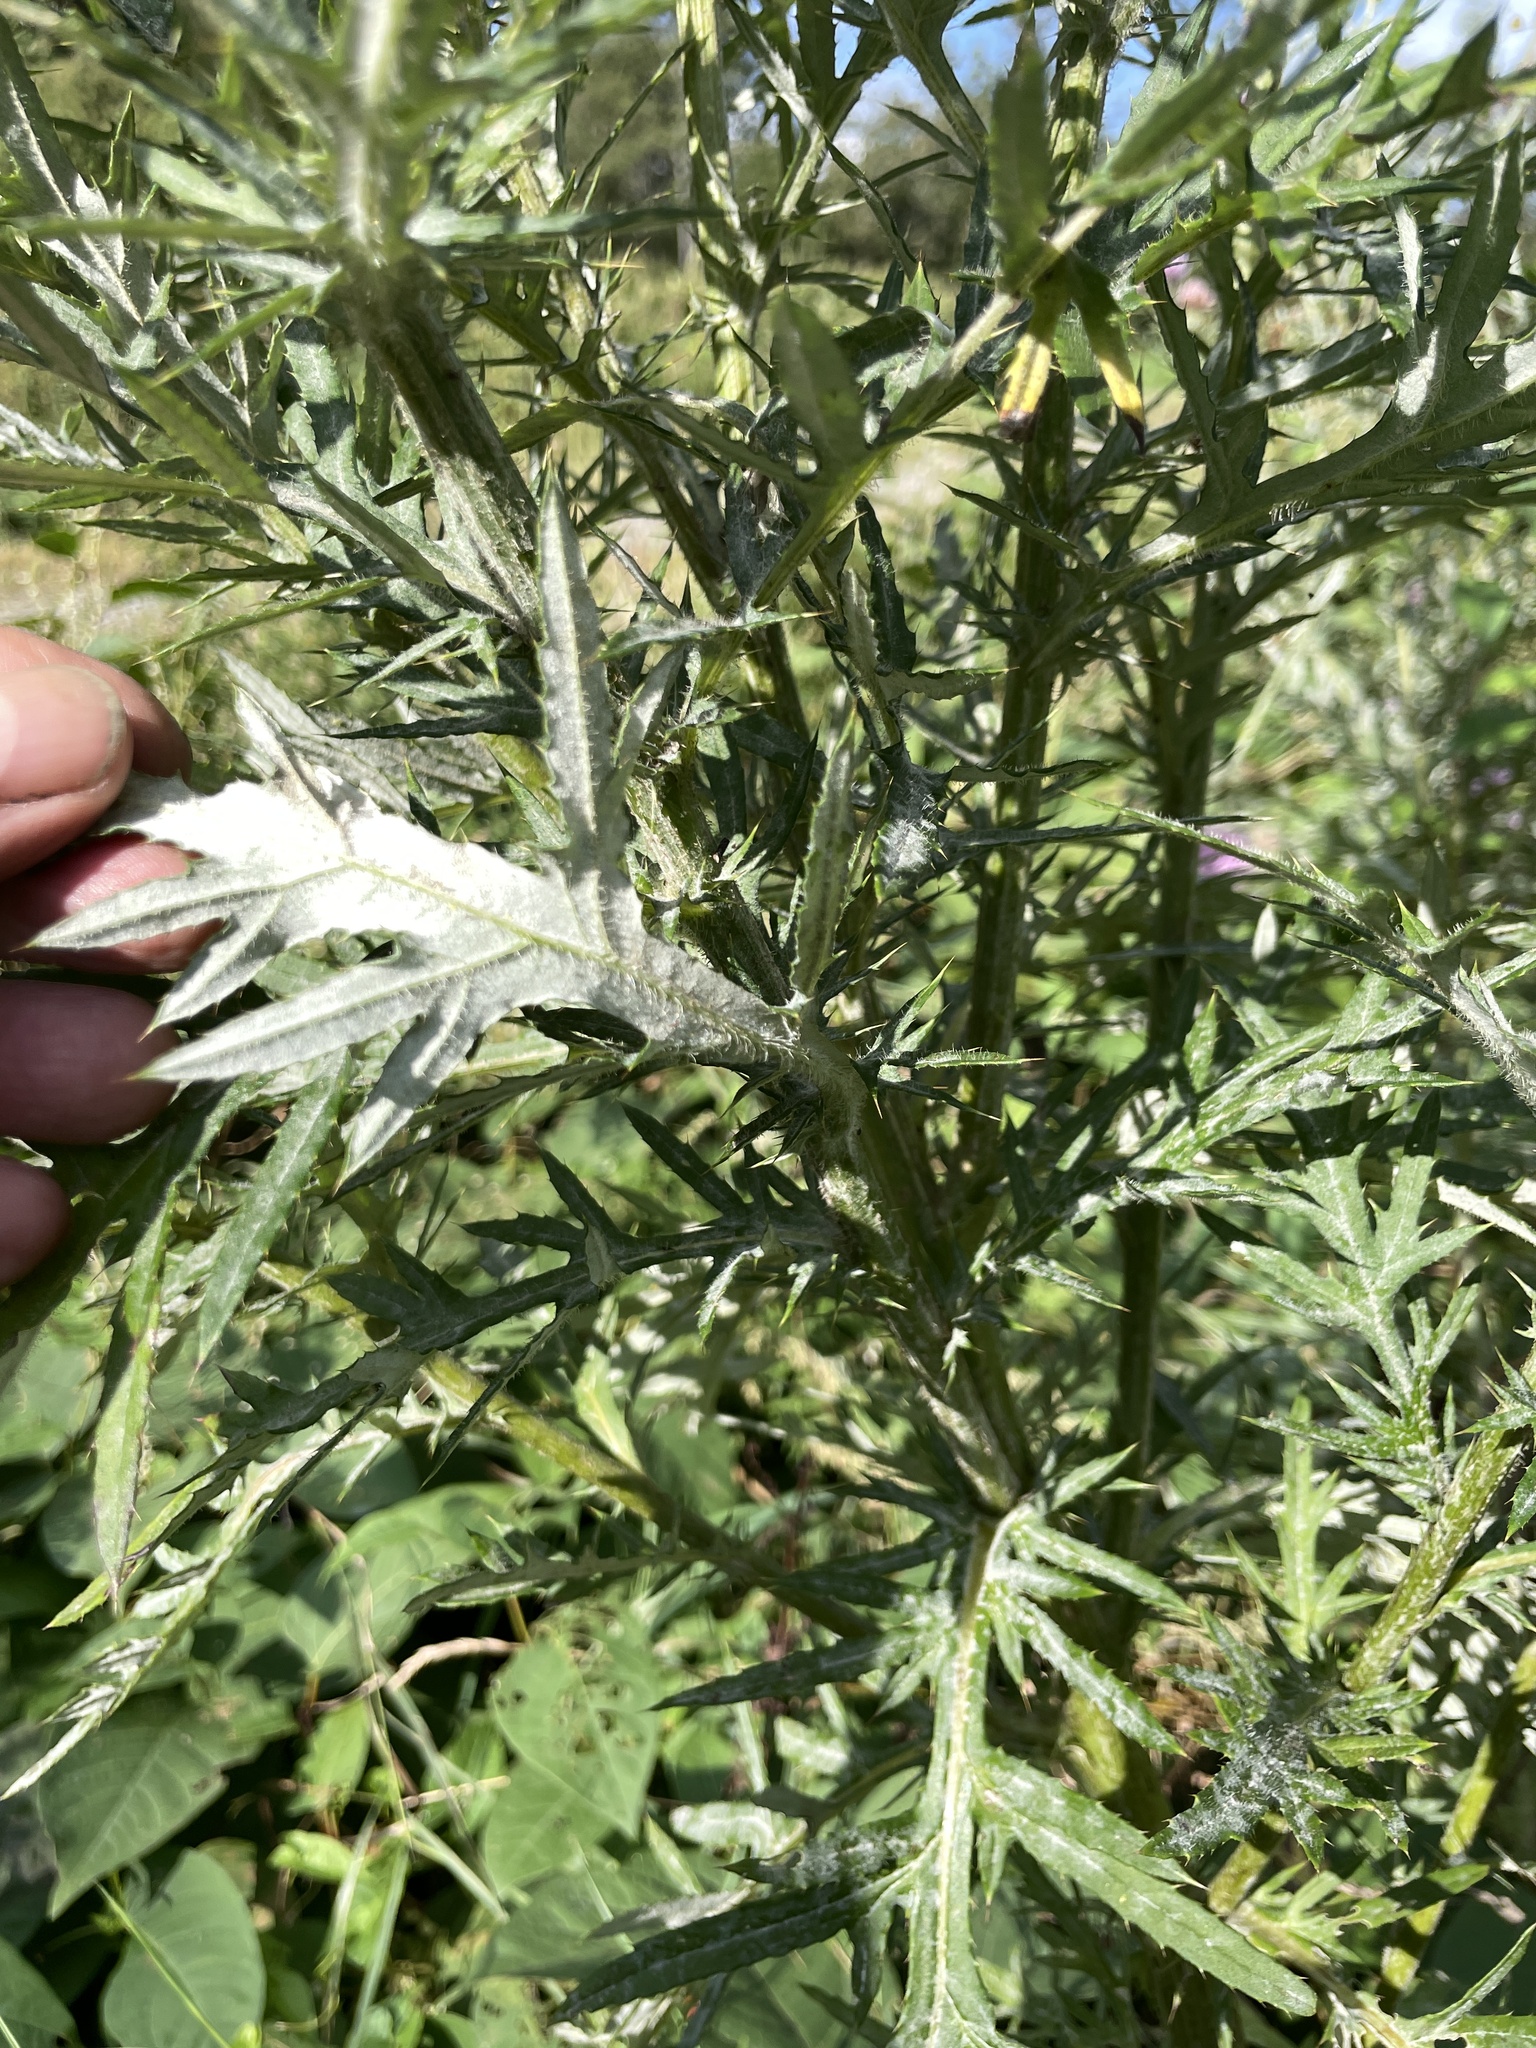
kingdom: Plantae
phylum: Tracheophyta
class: Magnoliopsida
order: Asterales
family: Asteraceae
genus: Cirsium
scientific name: Cirsium discolor
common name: Field thistle
